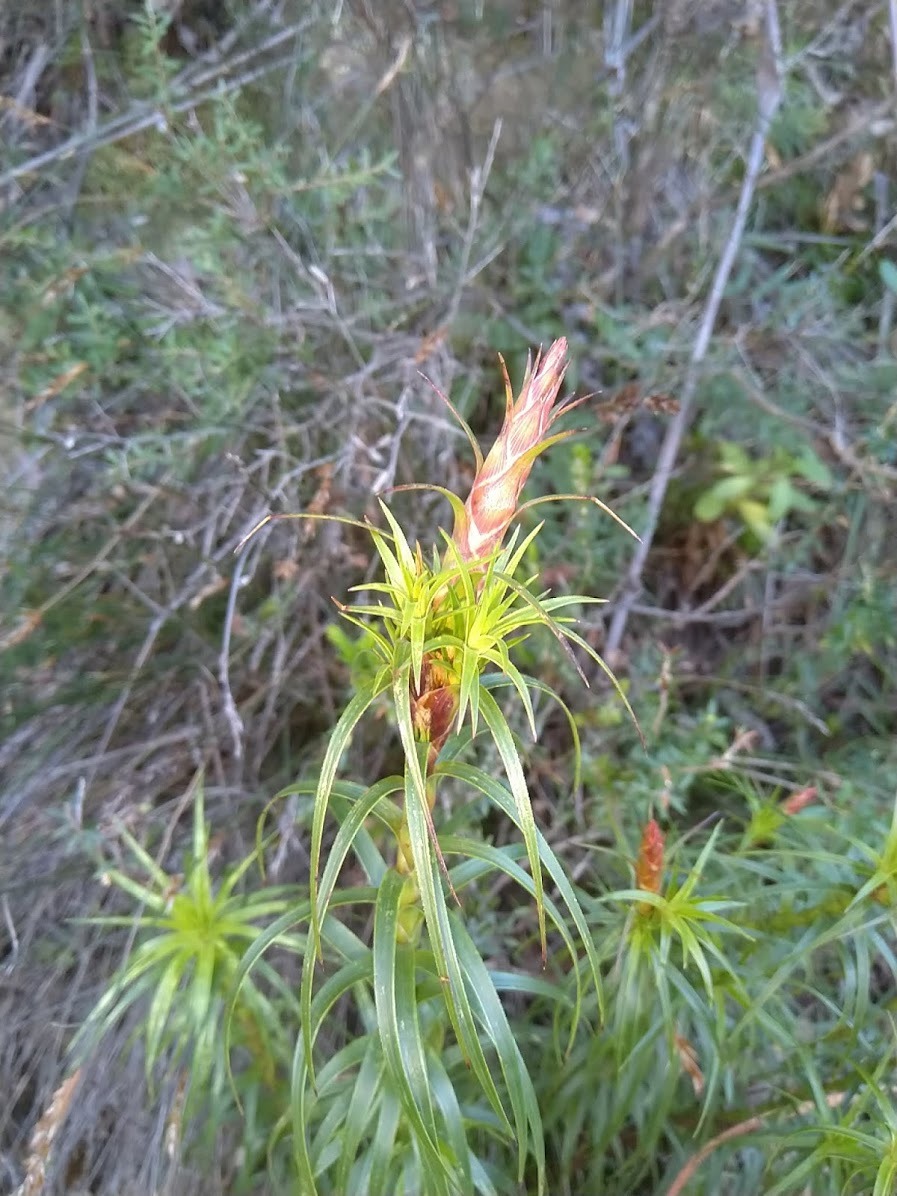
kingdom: Plantae
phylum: Tracheophyta
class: Magnoliopsida
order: Ericales
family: Ericaceae
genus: Dracophyllum
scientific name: Dracophyllum secundum
